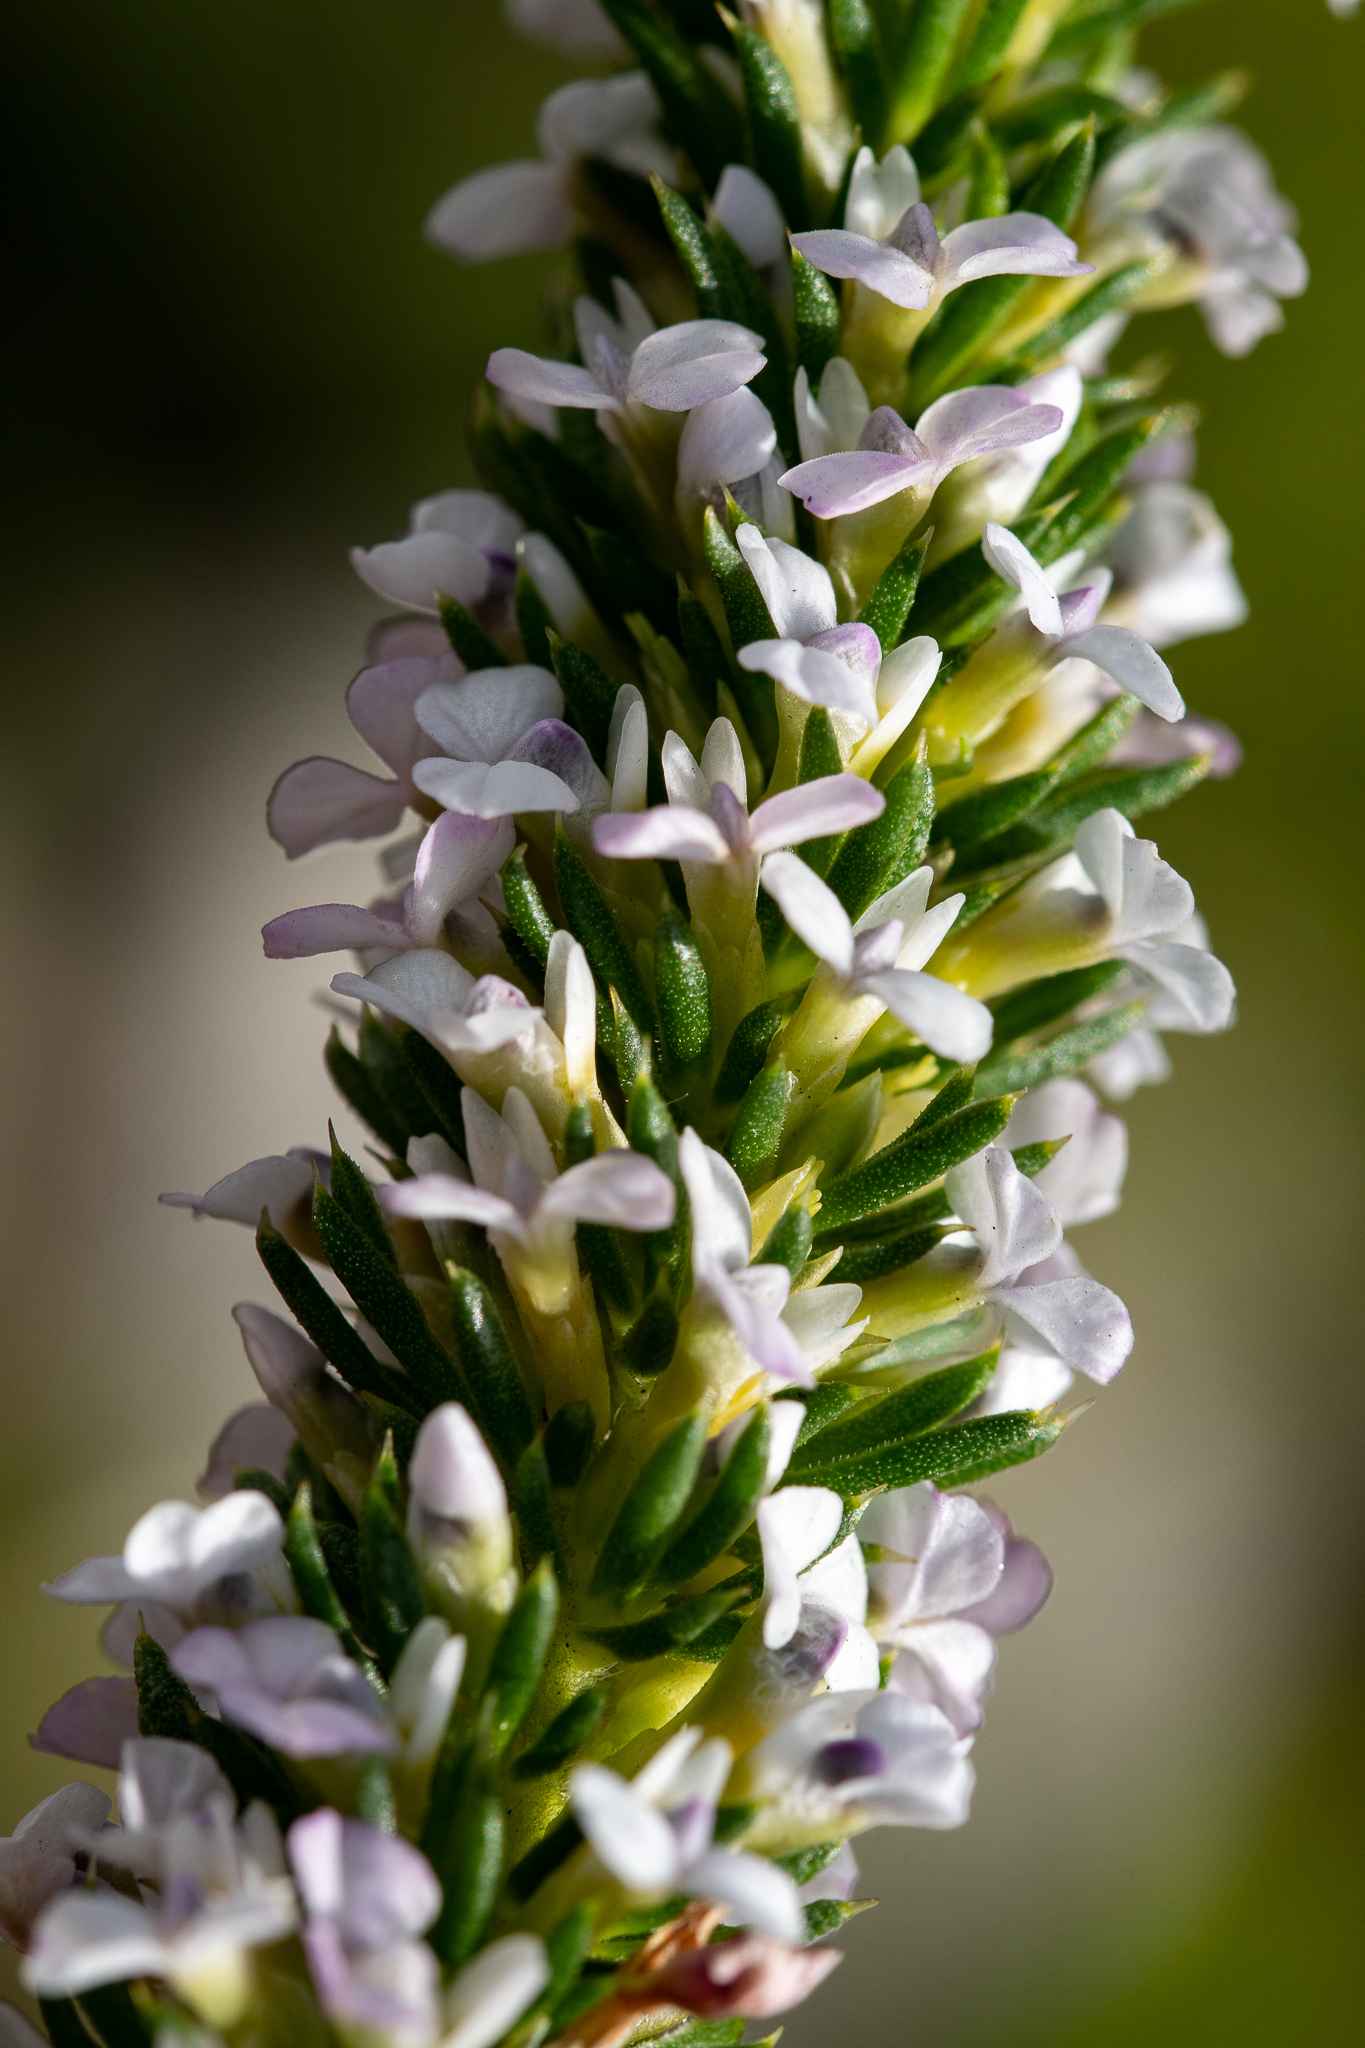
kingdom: Plantae
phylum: Tracheophyta
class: Magnoliopsida
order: Fabales
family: Polygalaceae
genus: Muraltia
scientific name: Muraltia salsolacea
